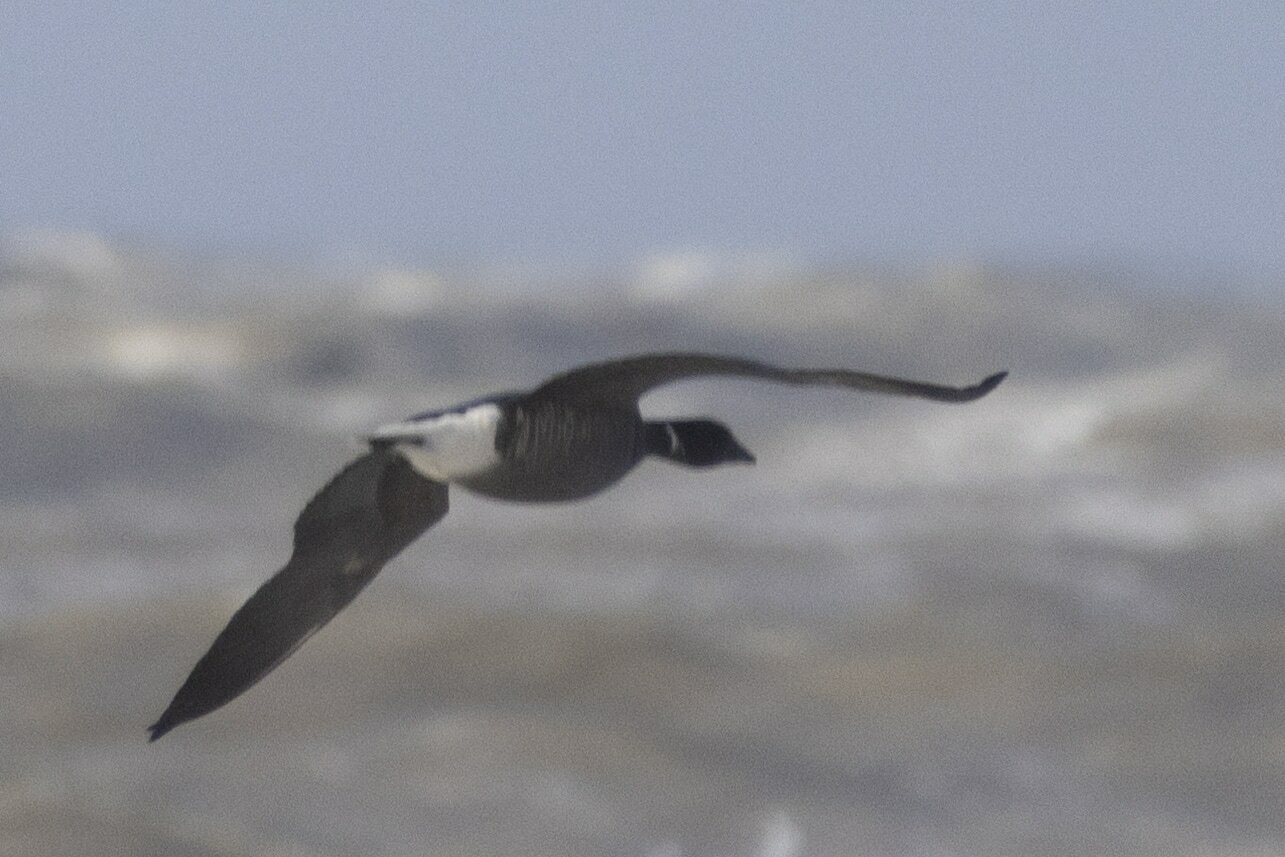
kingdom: Animalia
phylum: Chordata
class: Aves
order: Anseriformes
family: Anatidae
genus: Branta
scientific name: Branta bernicla
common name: Brant goose
